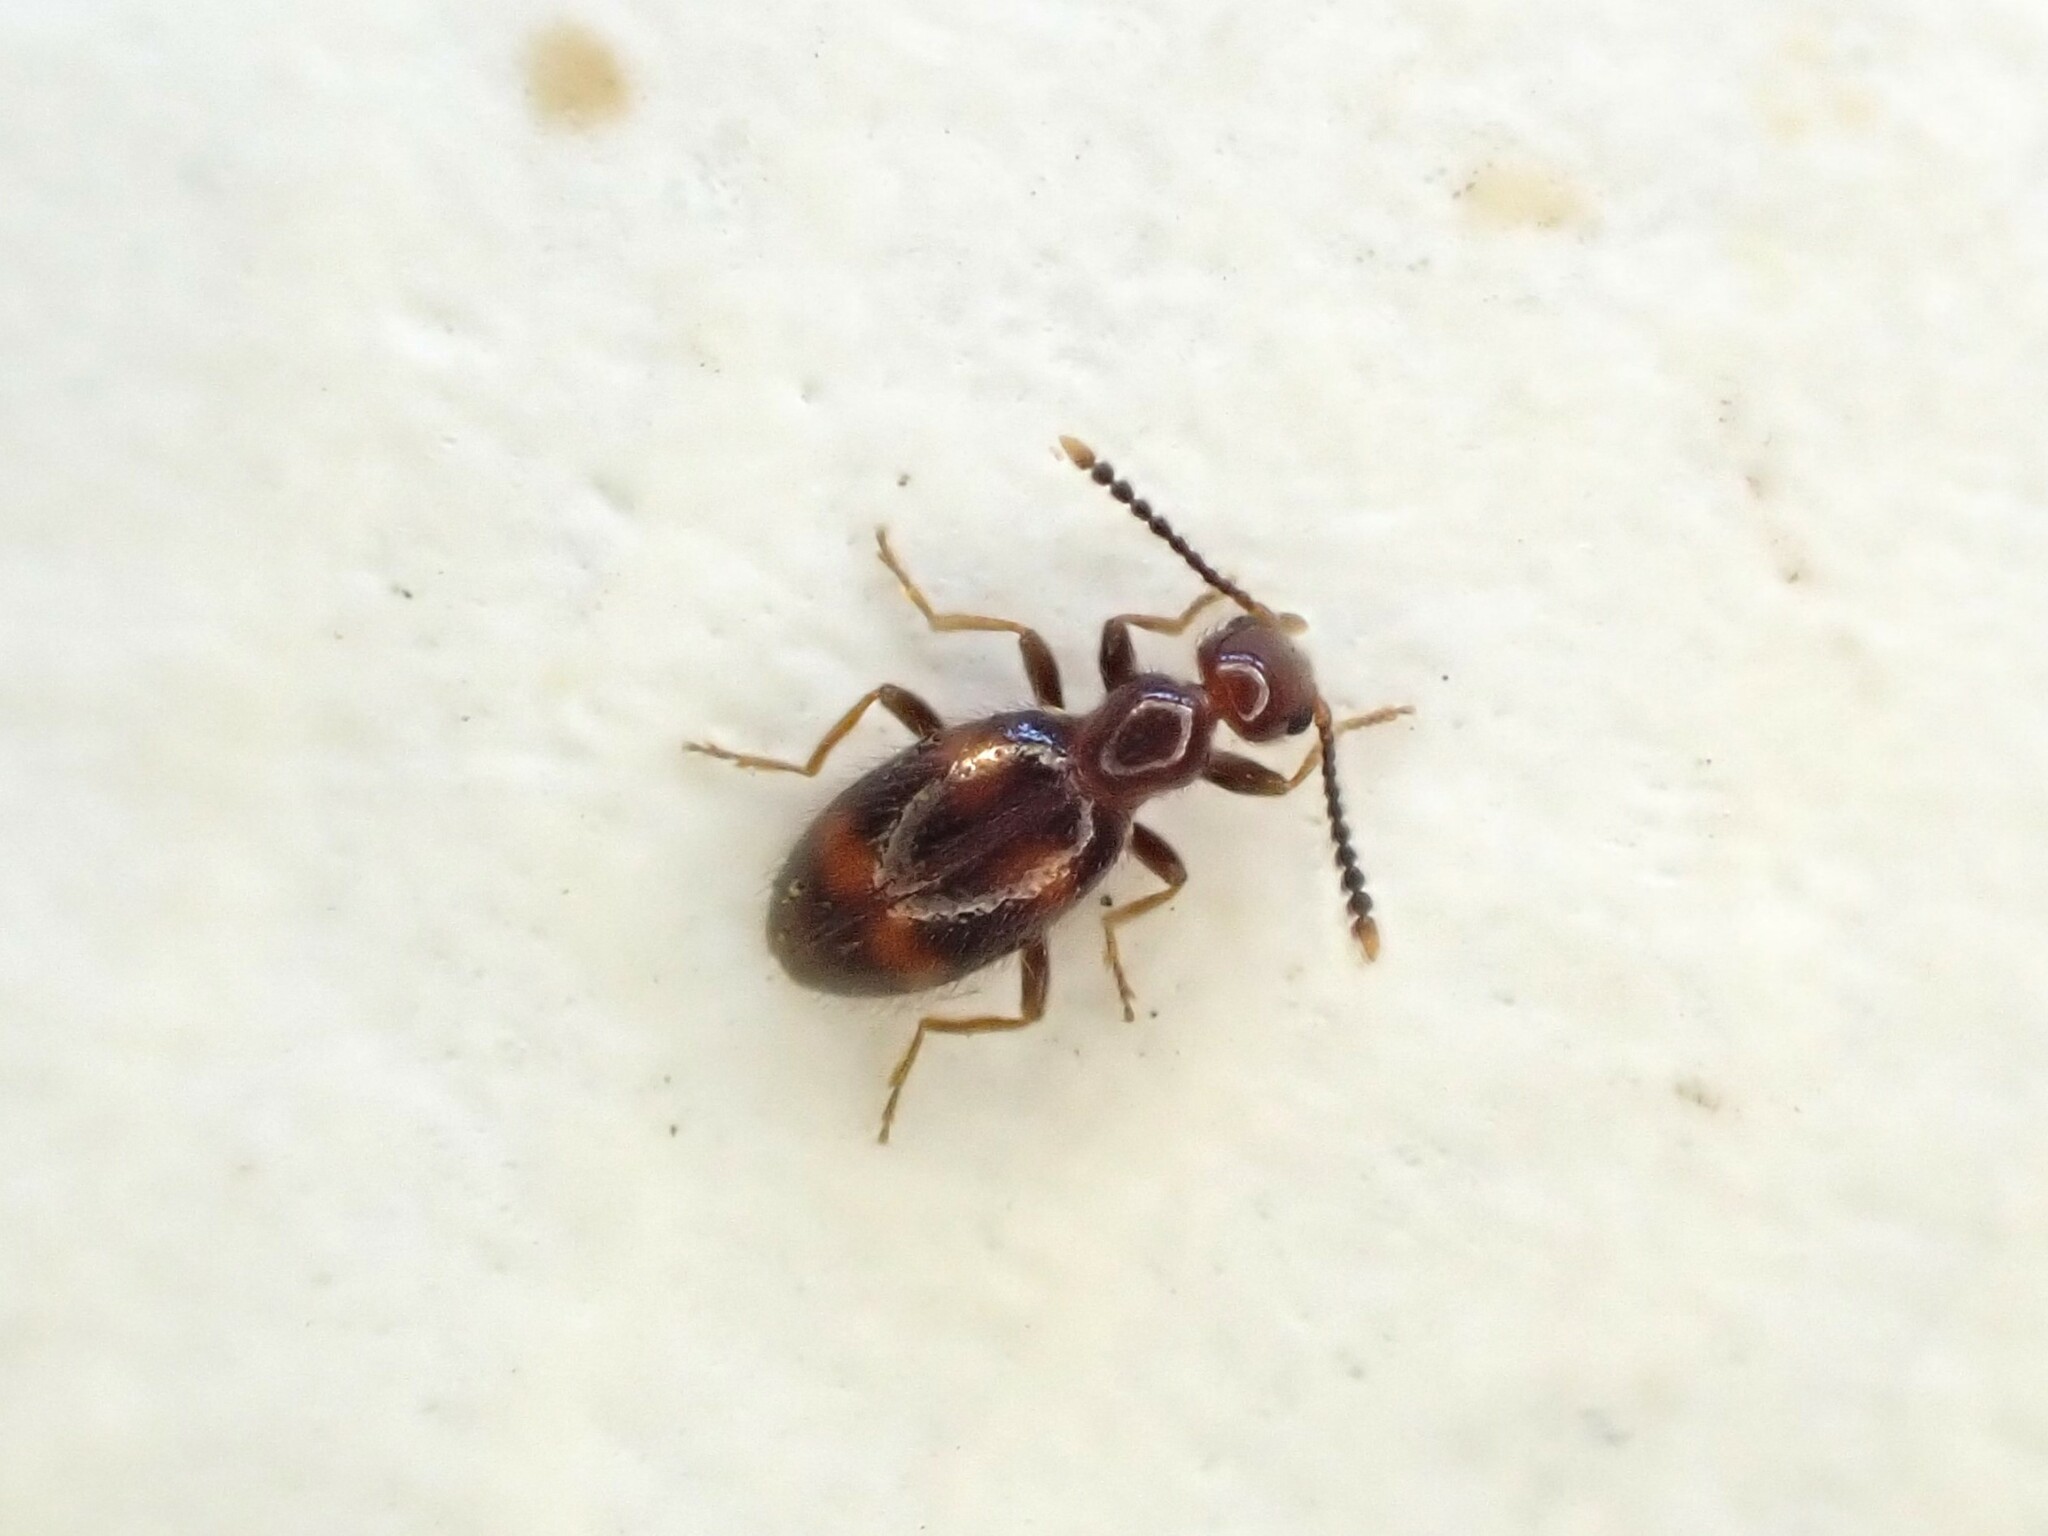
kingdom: Animalia
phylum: Arthropoda
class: Insecta
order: Coleoptera
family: Anthicidae
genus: Sapintus
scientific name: Sapintus aucklandensis
